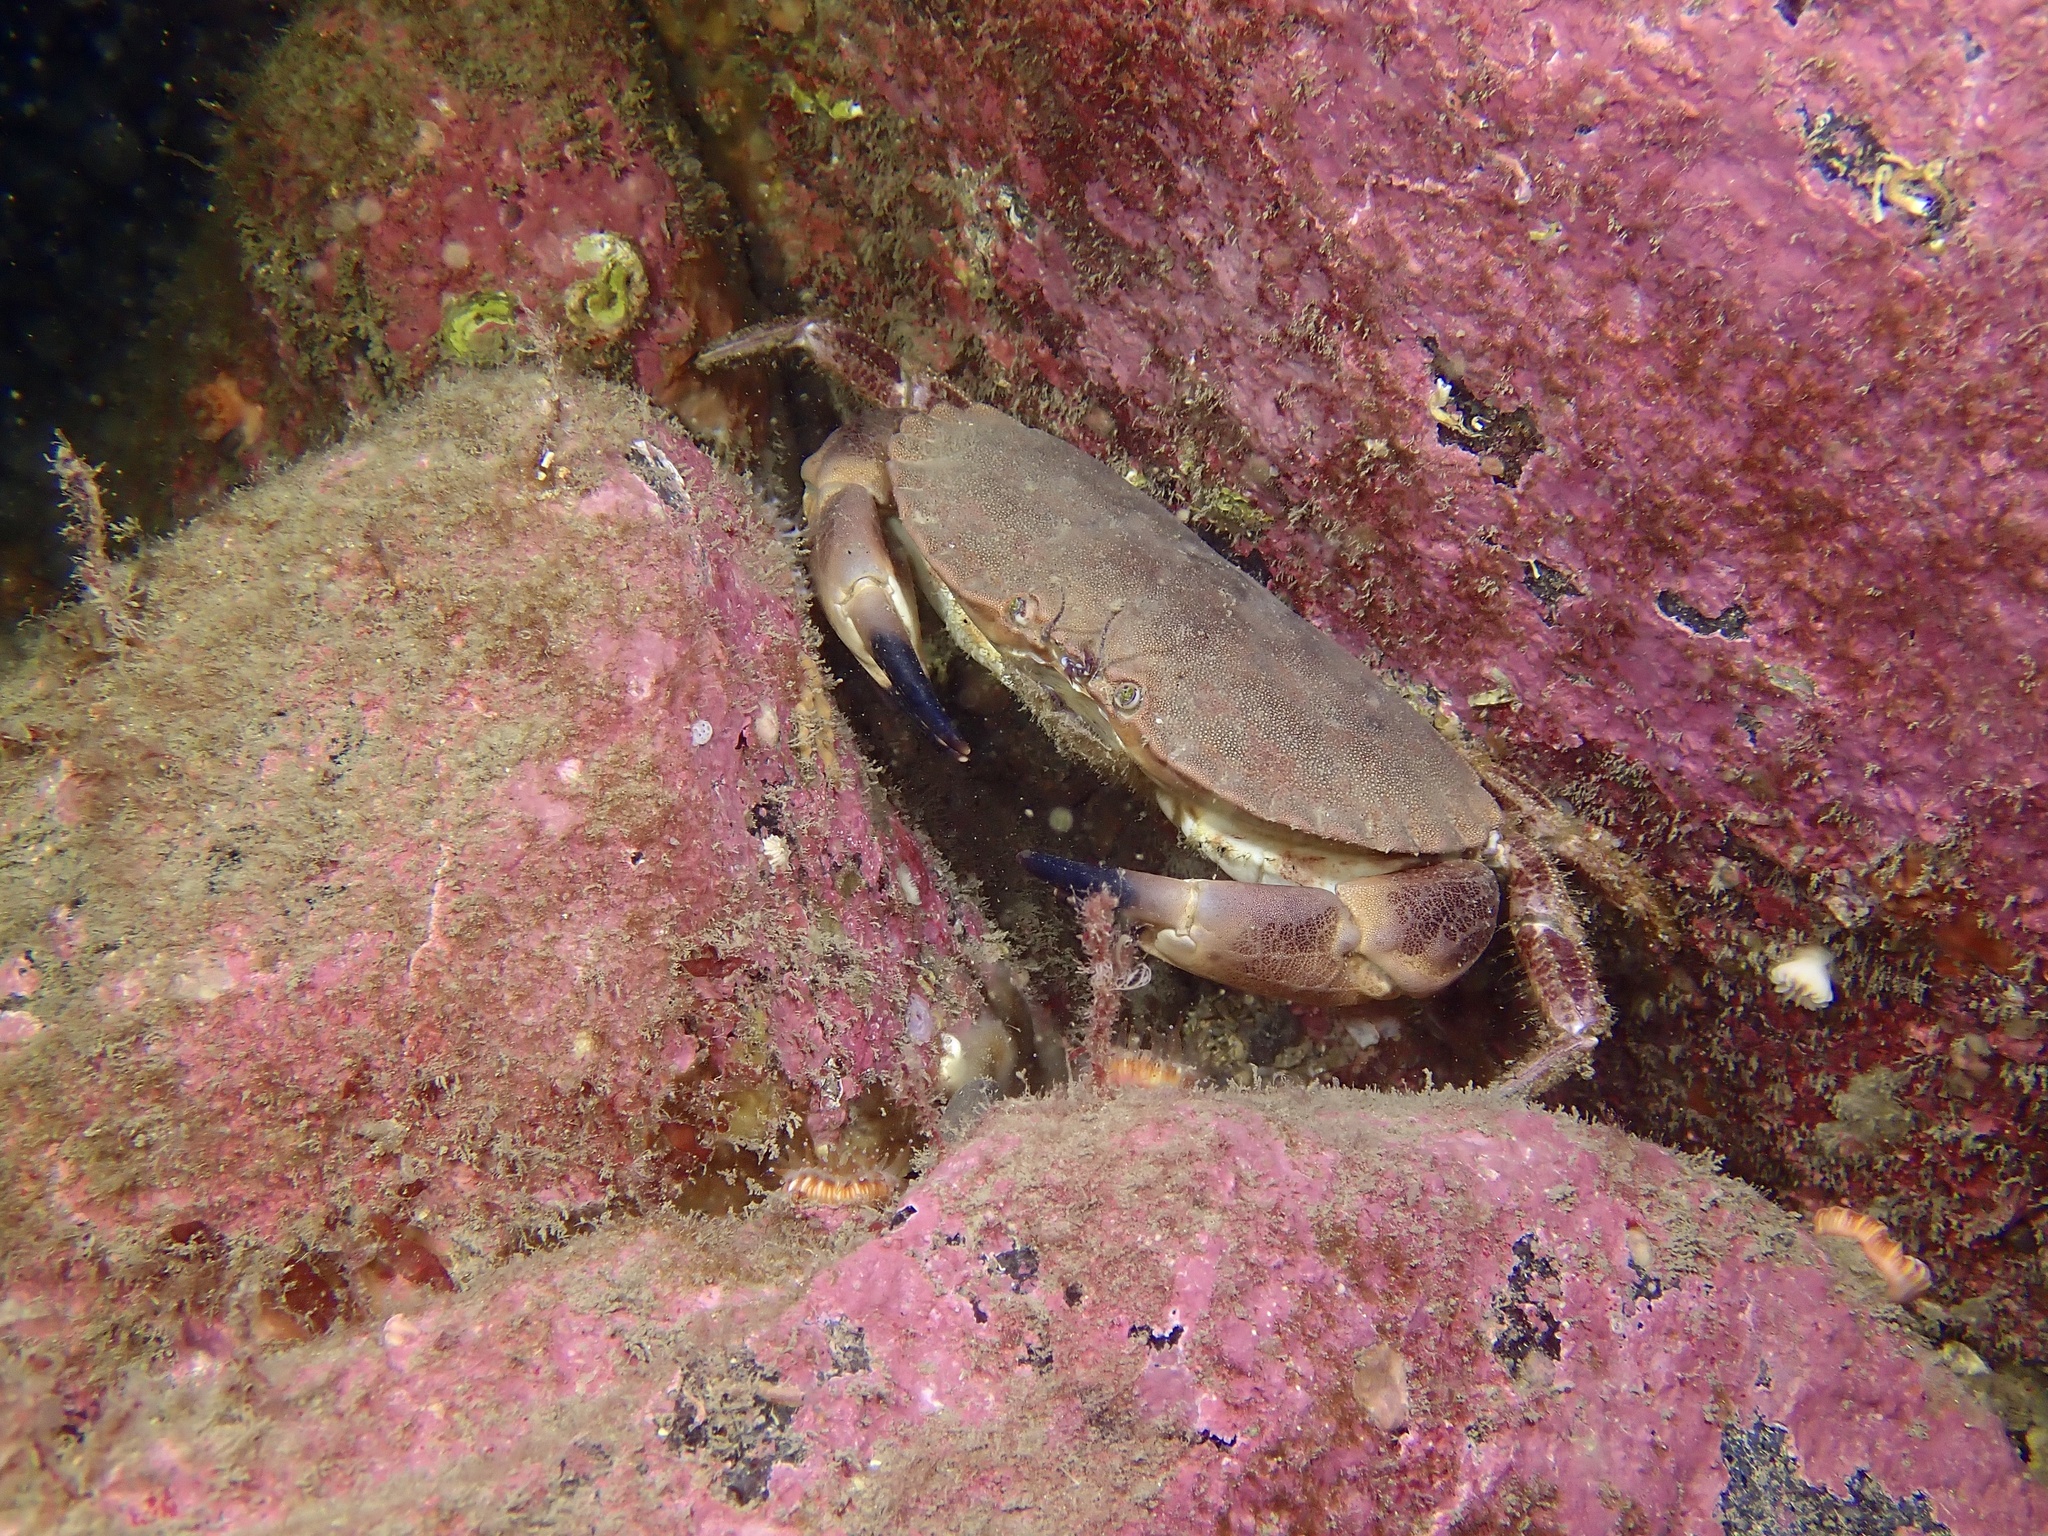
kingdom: Animalia
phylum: Arthropoda
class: Malacostraca
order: Decapoda
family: Cancridae
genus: Cancer
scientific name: Cancer pagurus
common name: Edible crab
